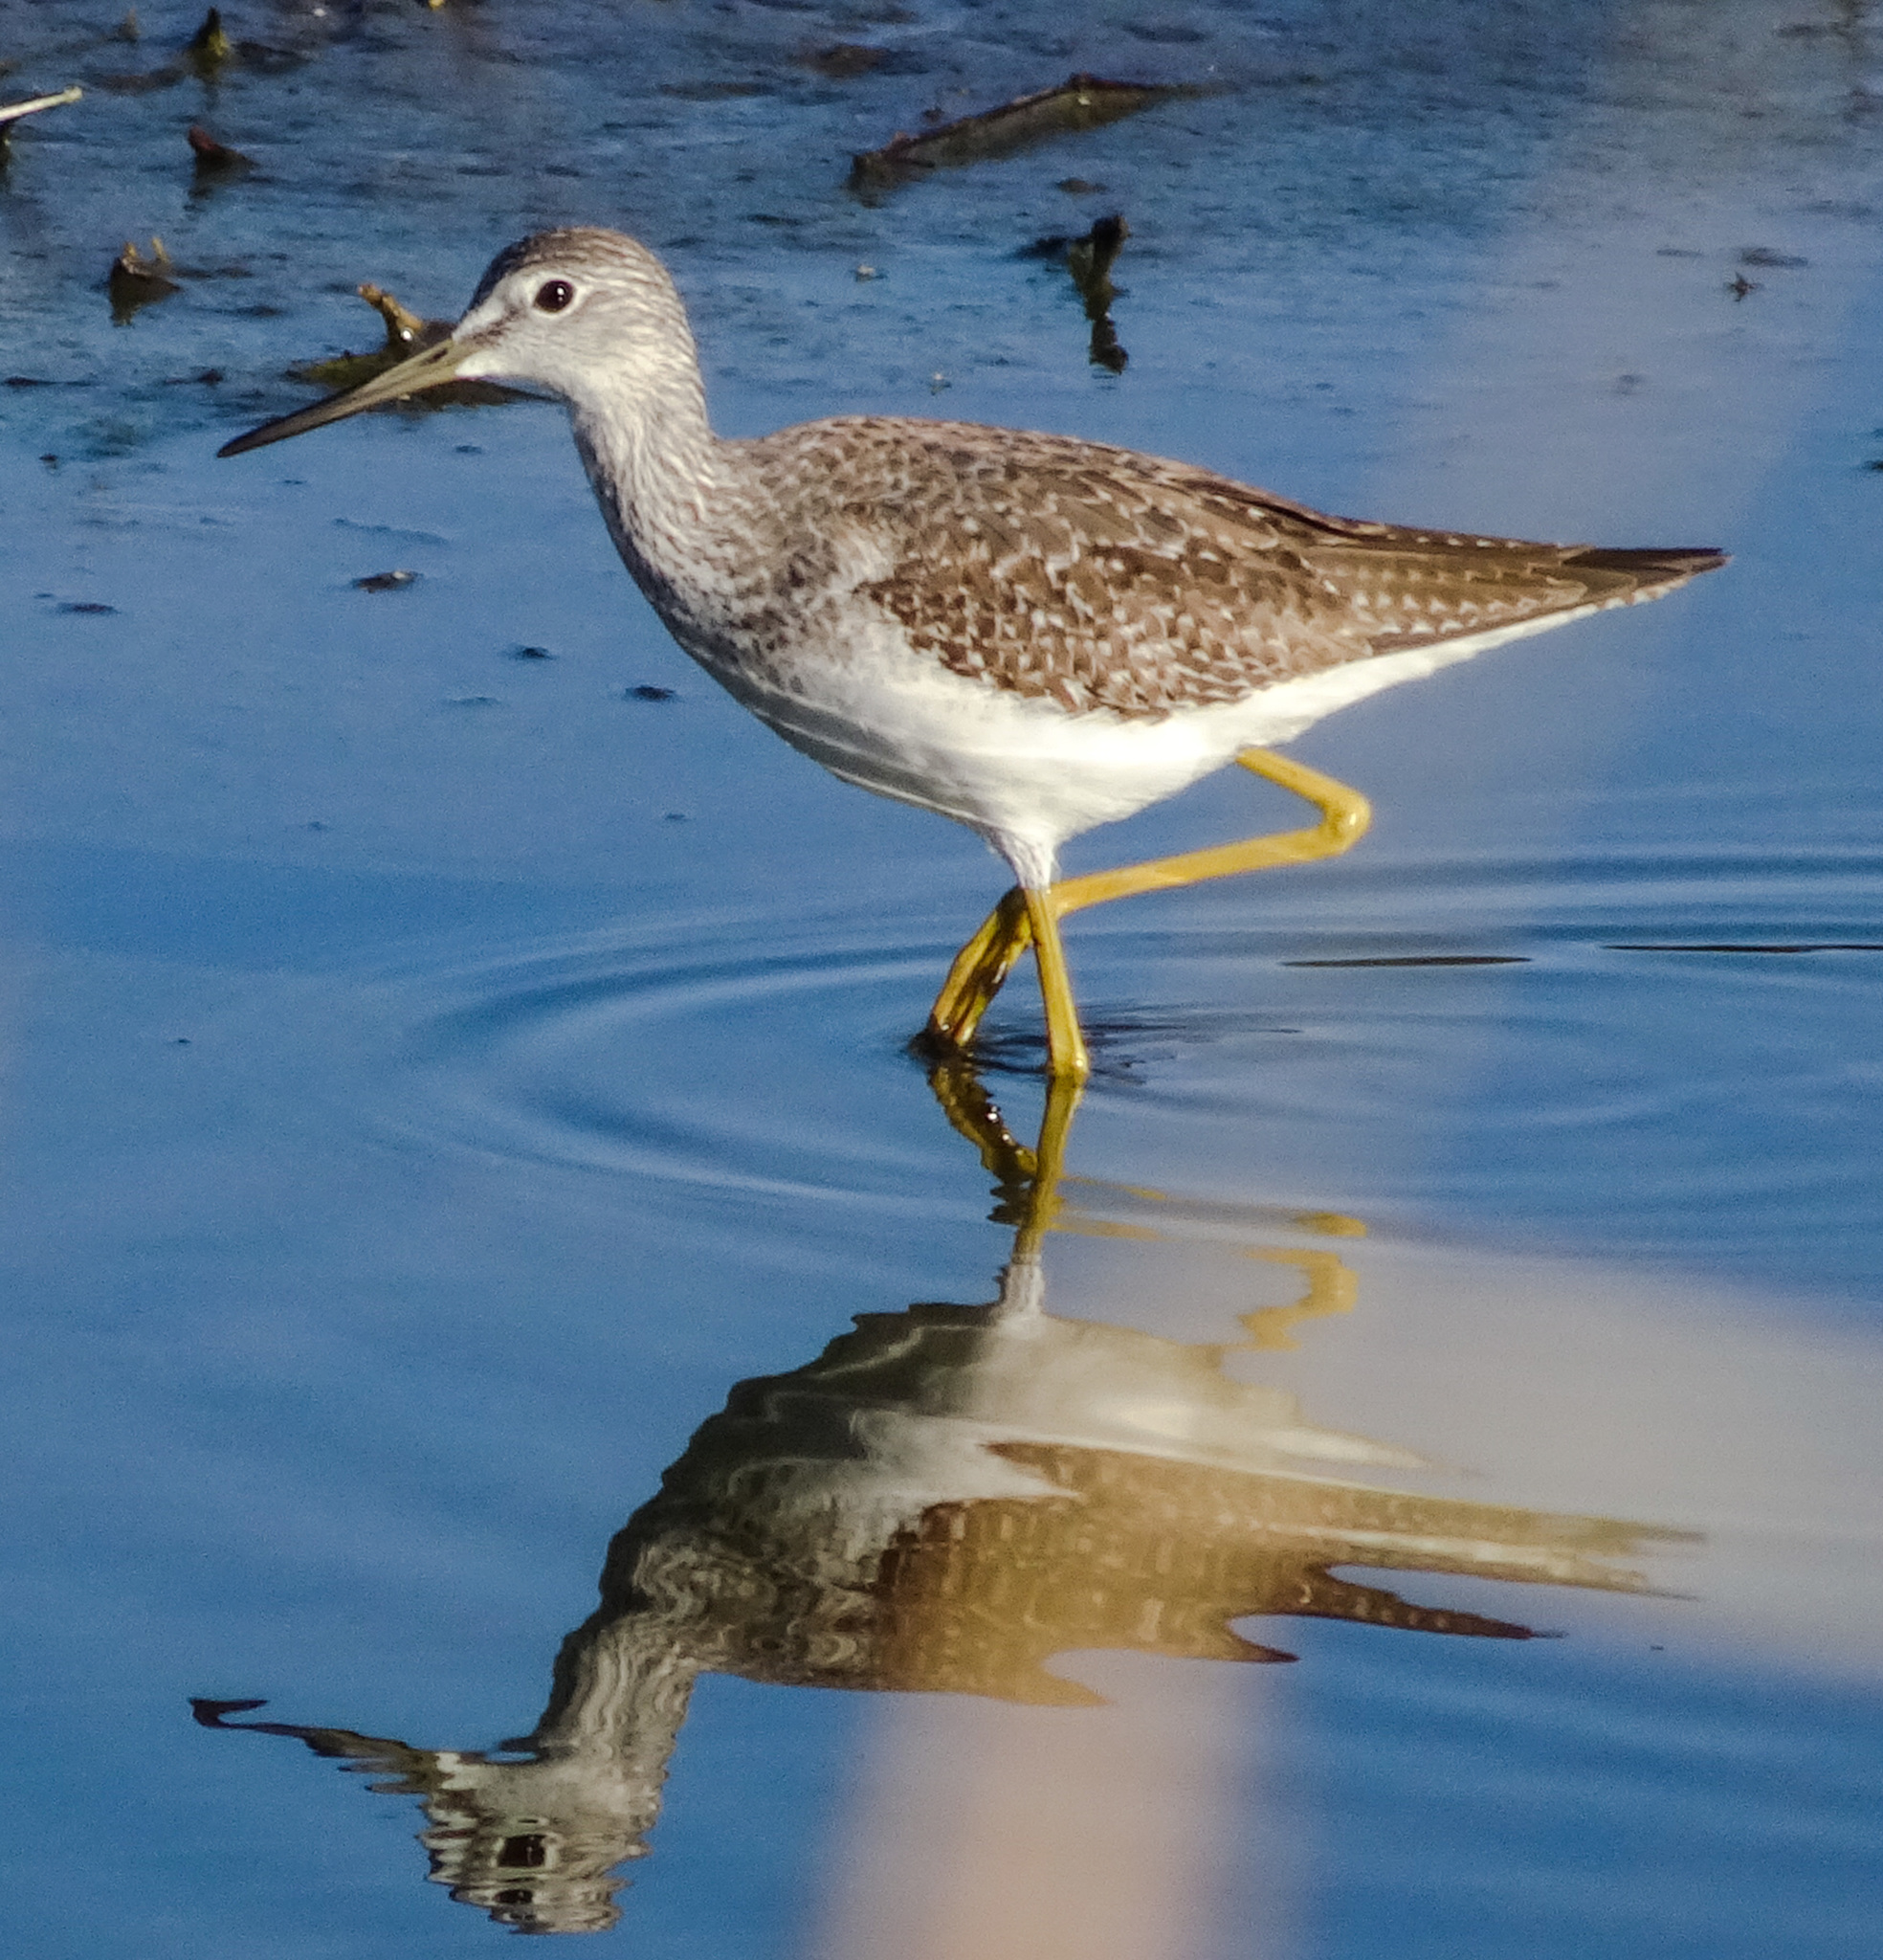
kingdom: Animalia
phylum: Chordata
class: Aves
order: Charadriiformes
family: Scolopacidae
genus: Tringa
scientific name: Tringa melanoleuca
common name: Greater yellowlegs
